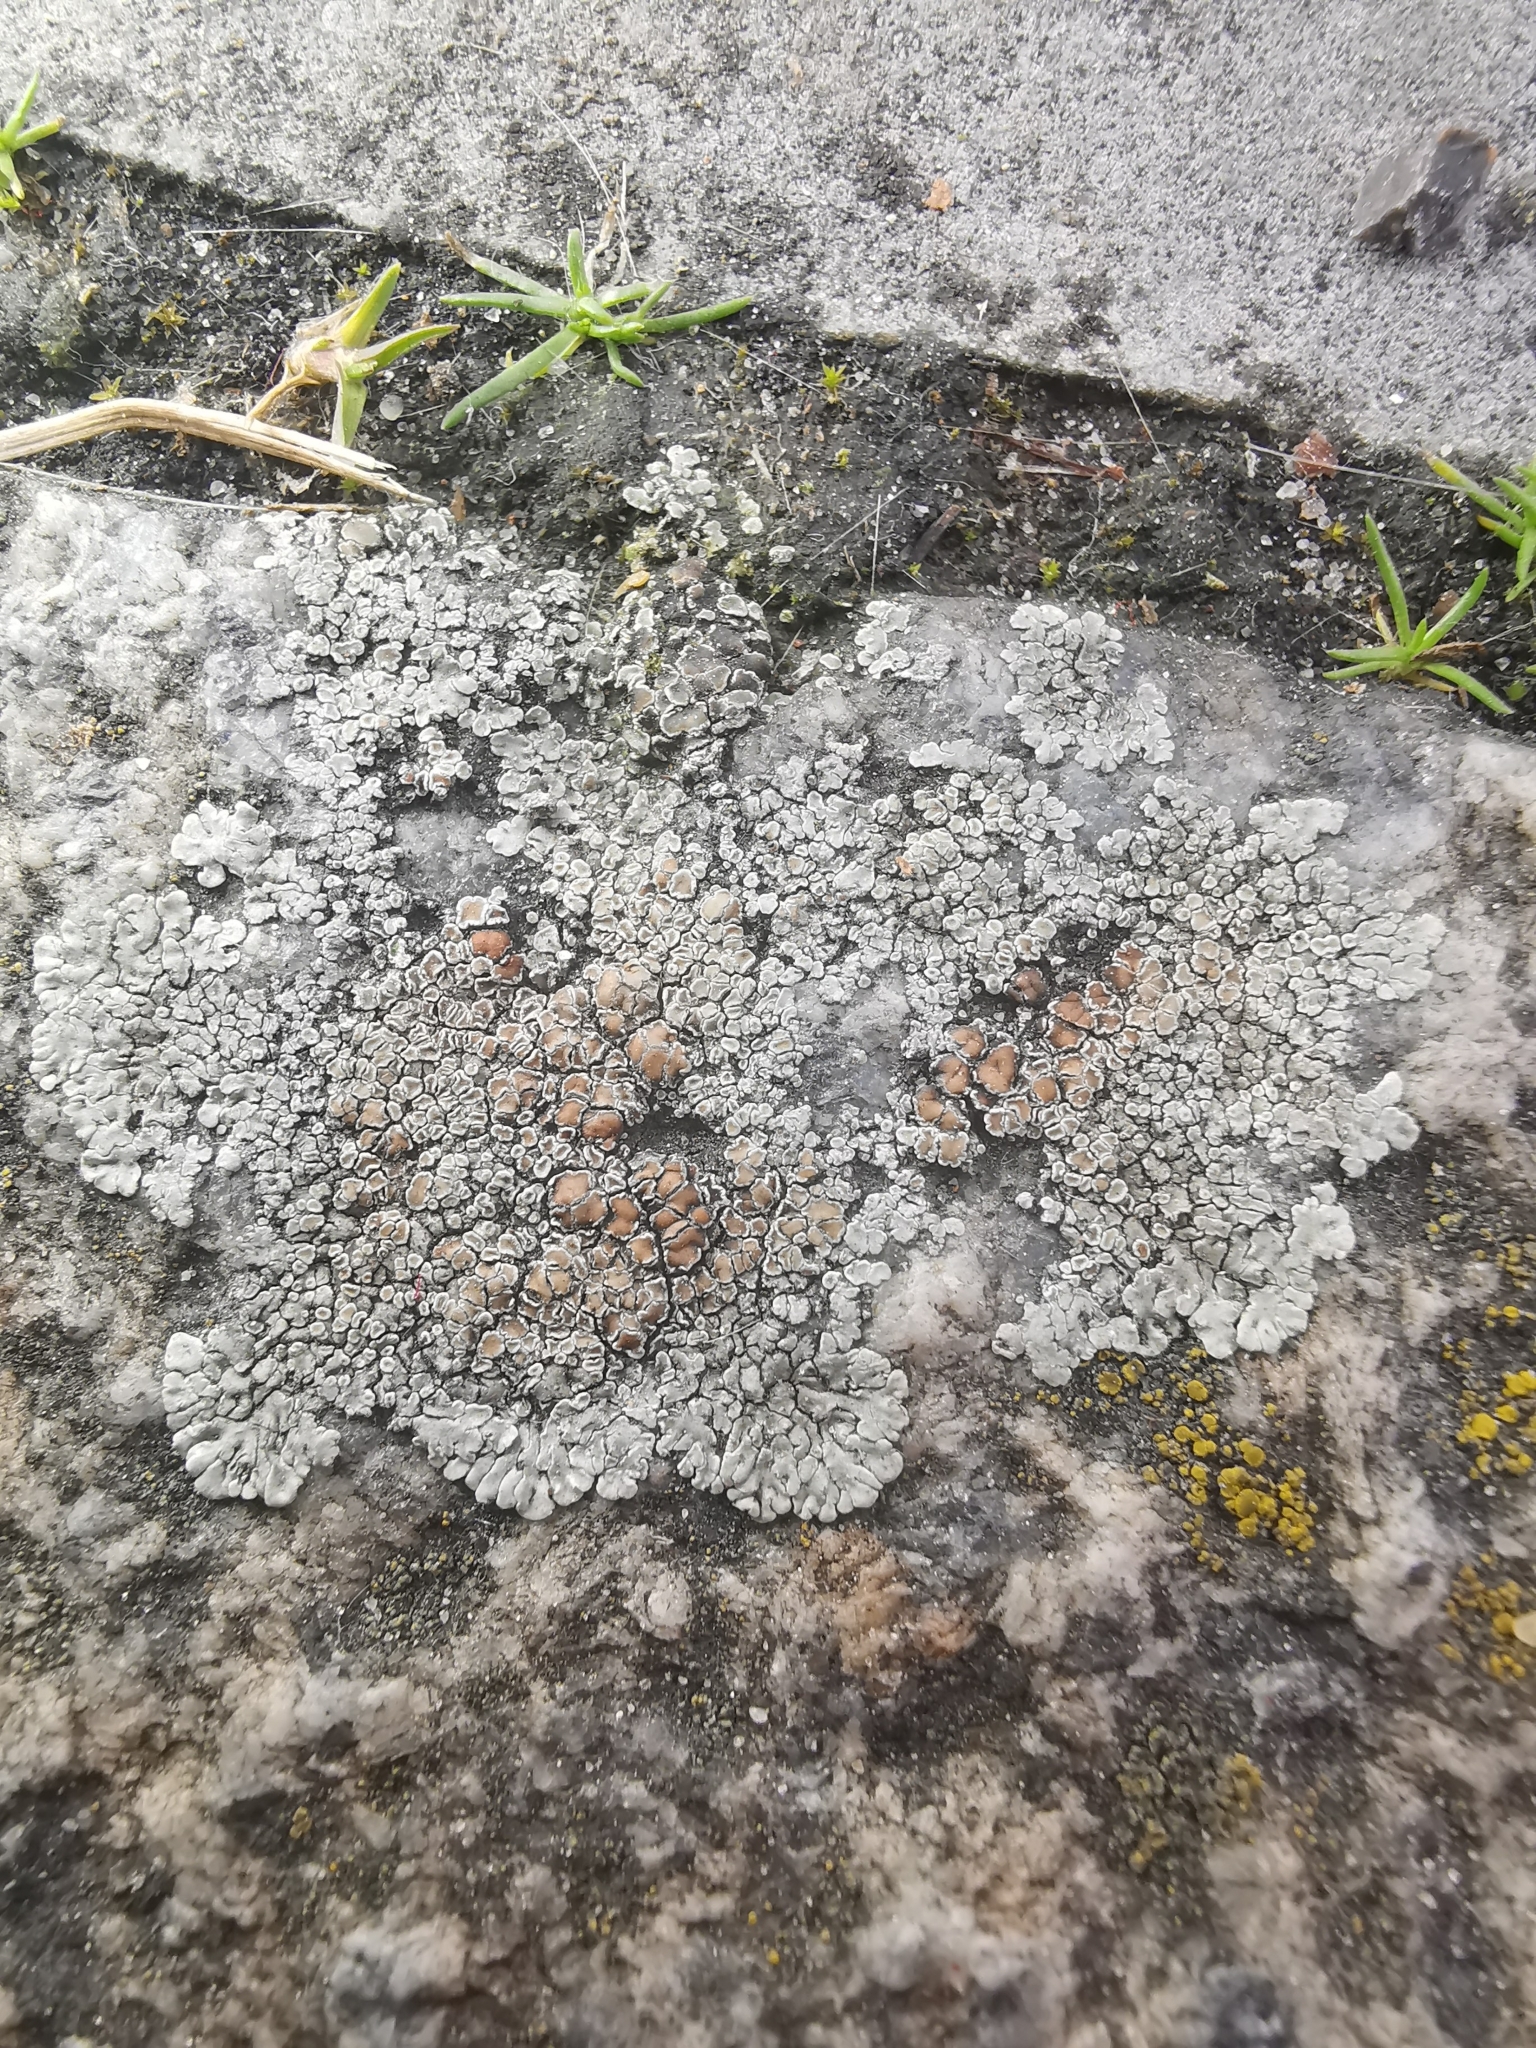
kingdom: Fungi
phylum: Ascomycota
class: Lecanoromycetes
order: Lecanorales
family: Lecanoraceae
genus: Protoparmeliopsis
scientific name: Protoparmeliopsis muralis
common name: Stonewall rim lichen
